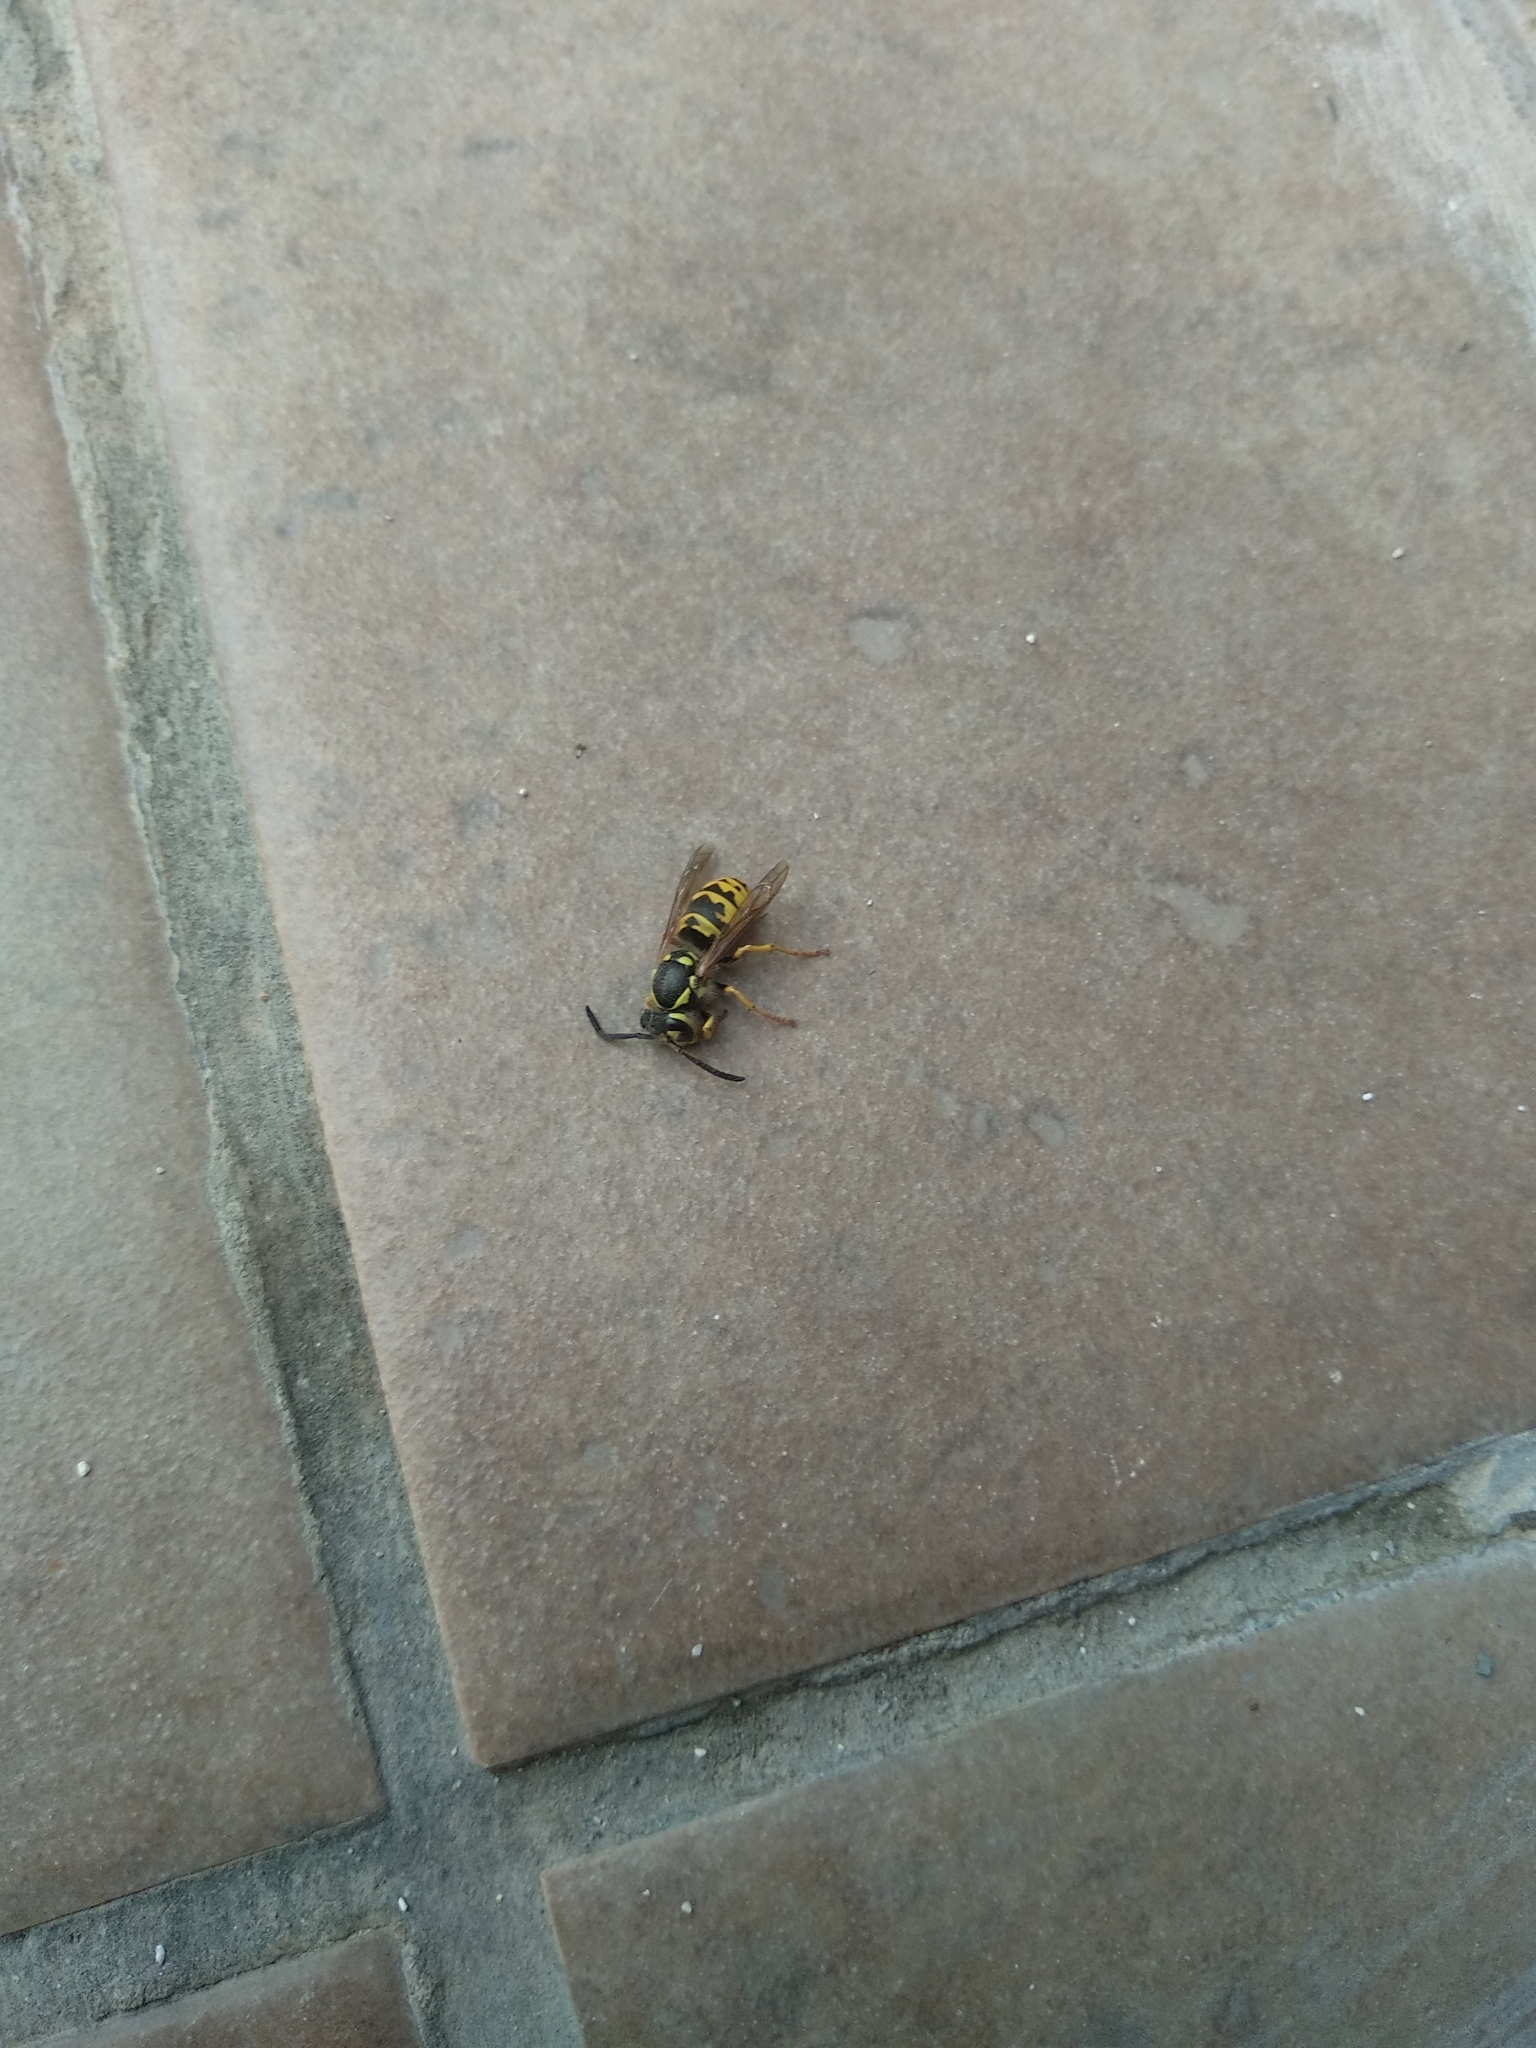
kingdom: Animalia
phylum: Arthropoda
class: Insecta
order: Hymenoptera
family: Vespidae
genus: Vespula
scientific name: Vespula germanica
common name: German wasp
